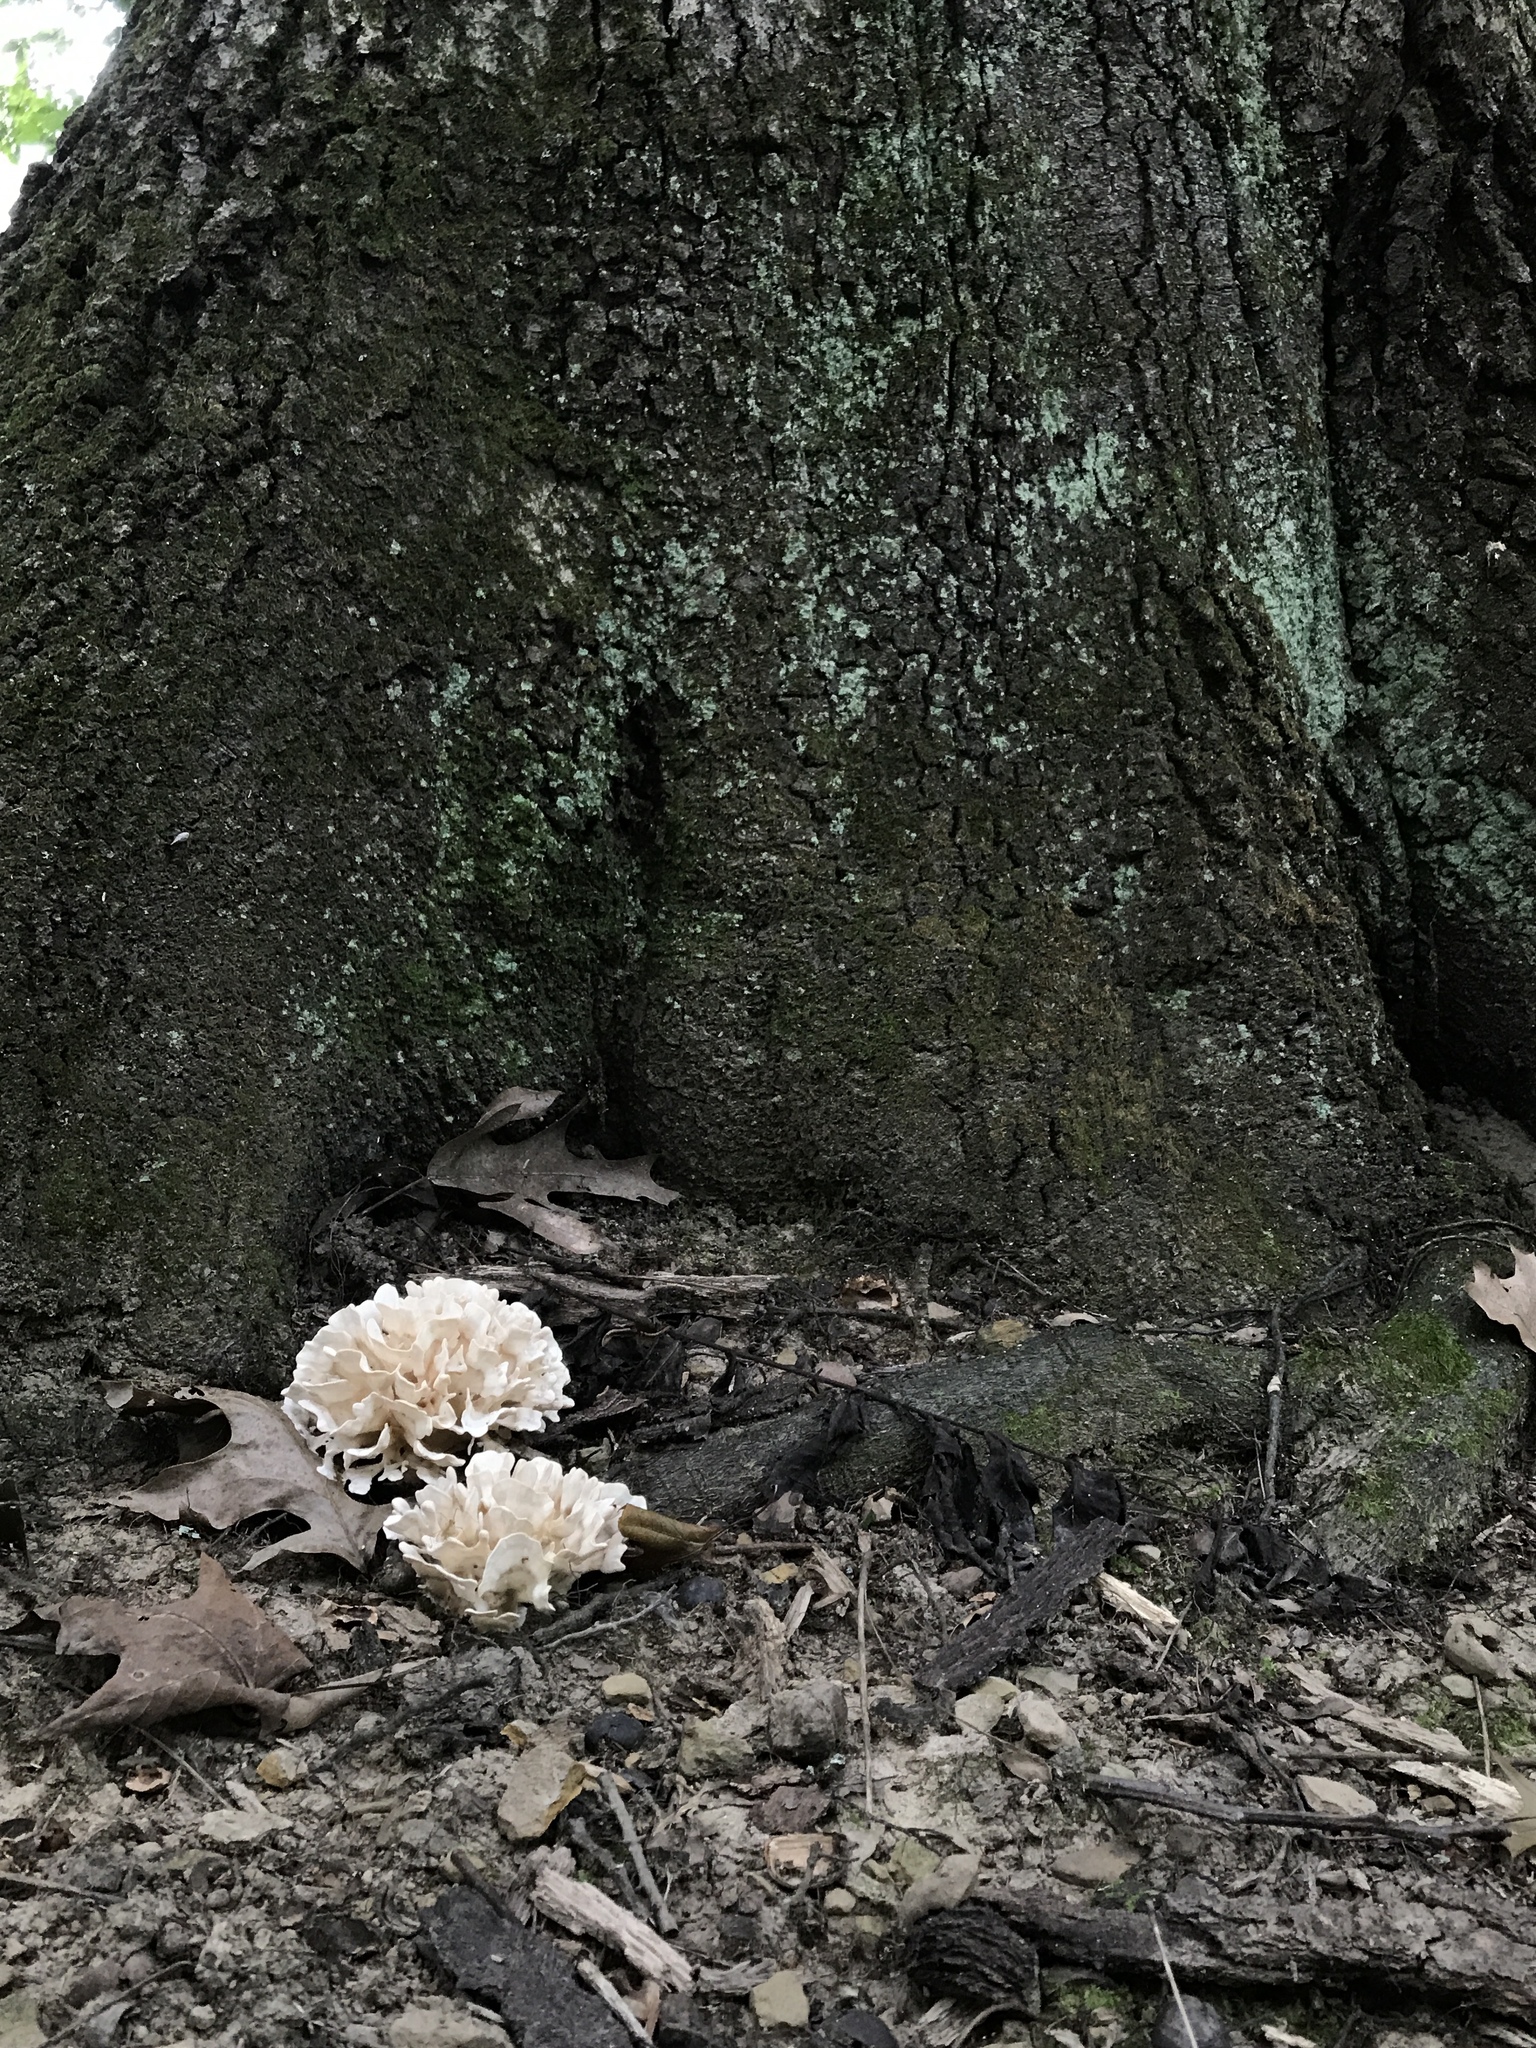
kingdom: Fungi
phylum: Basidiomycota
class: Agaricomycetes
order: Polyporales
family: Sparassidaceae
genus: Sparassis
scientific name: Sparassis spathulata
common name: Eastern cauliflower mushroom
